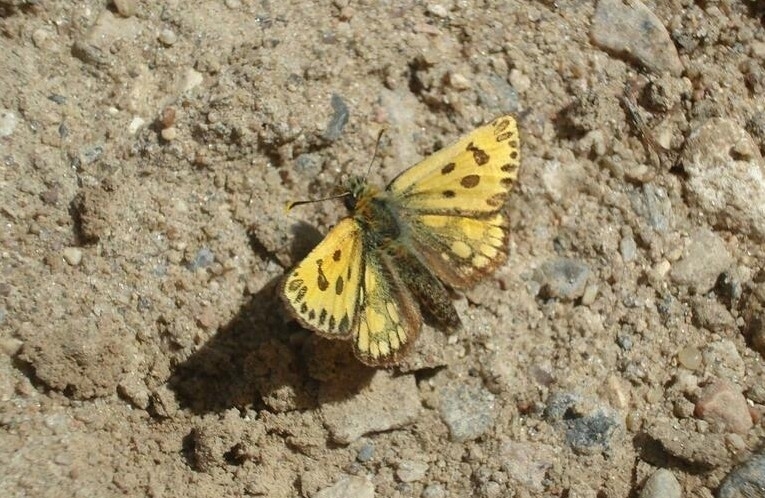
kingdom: Animalia
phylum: Arthropoda
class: Insecta
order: Lepidoptera
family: Hesperiidae
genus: Carterocephalus
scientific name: Carterocephalus silvicola
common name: Northern chequered skipper
